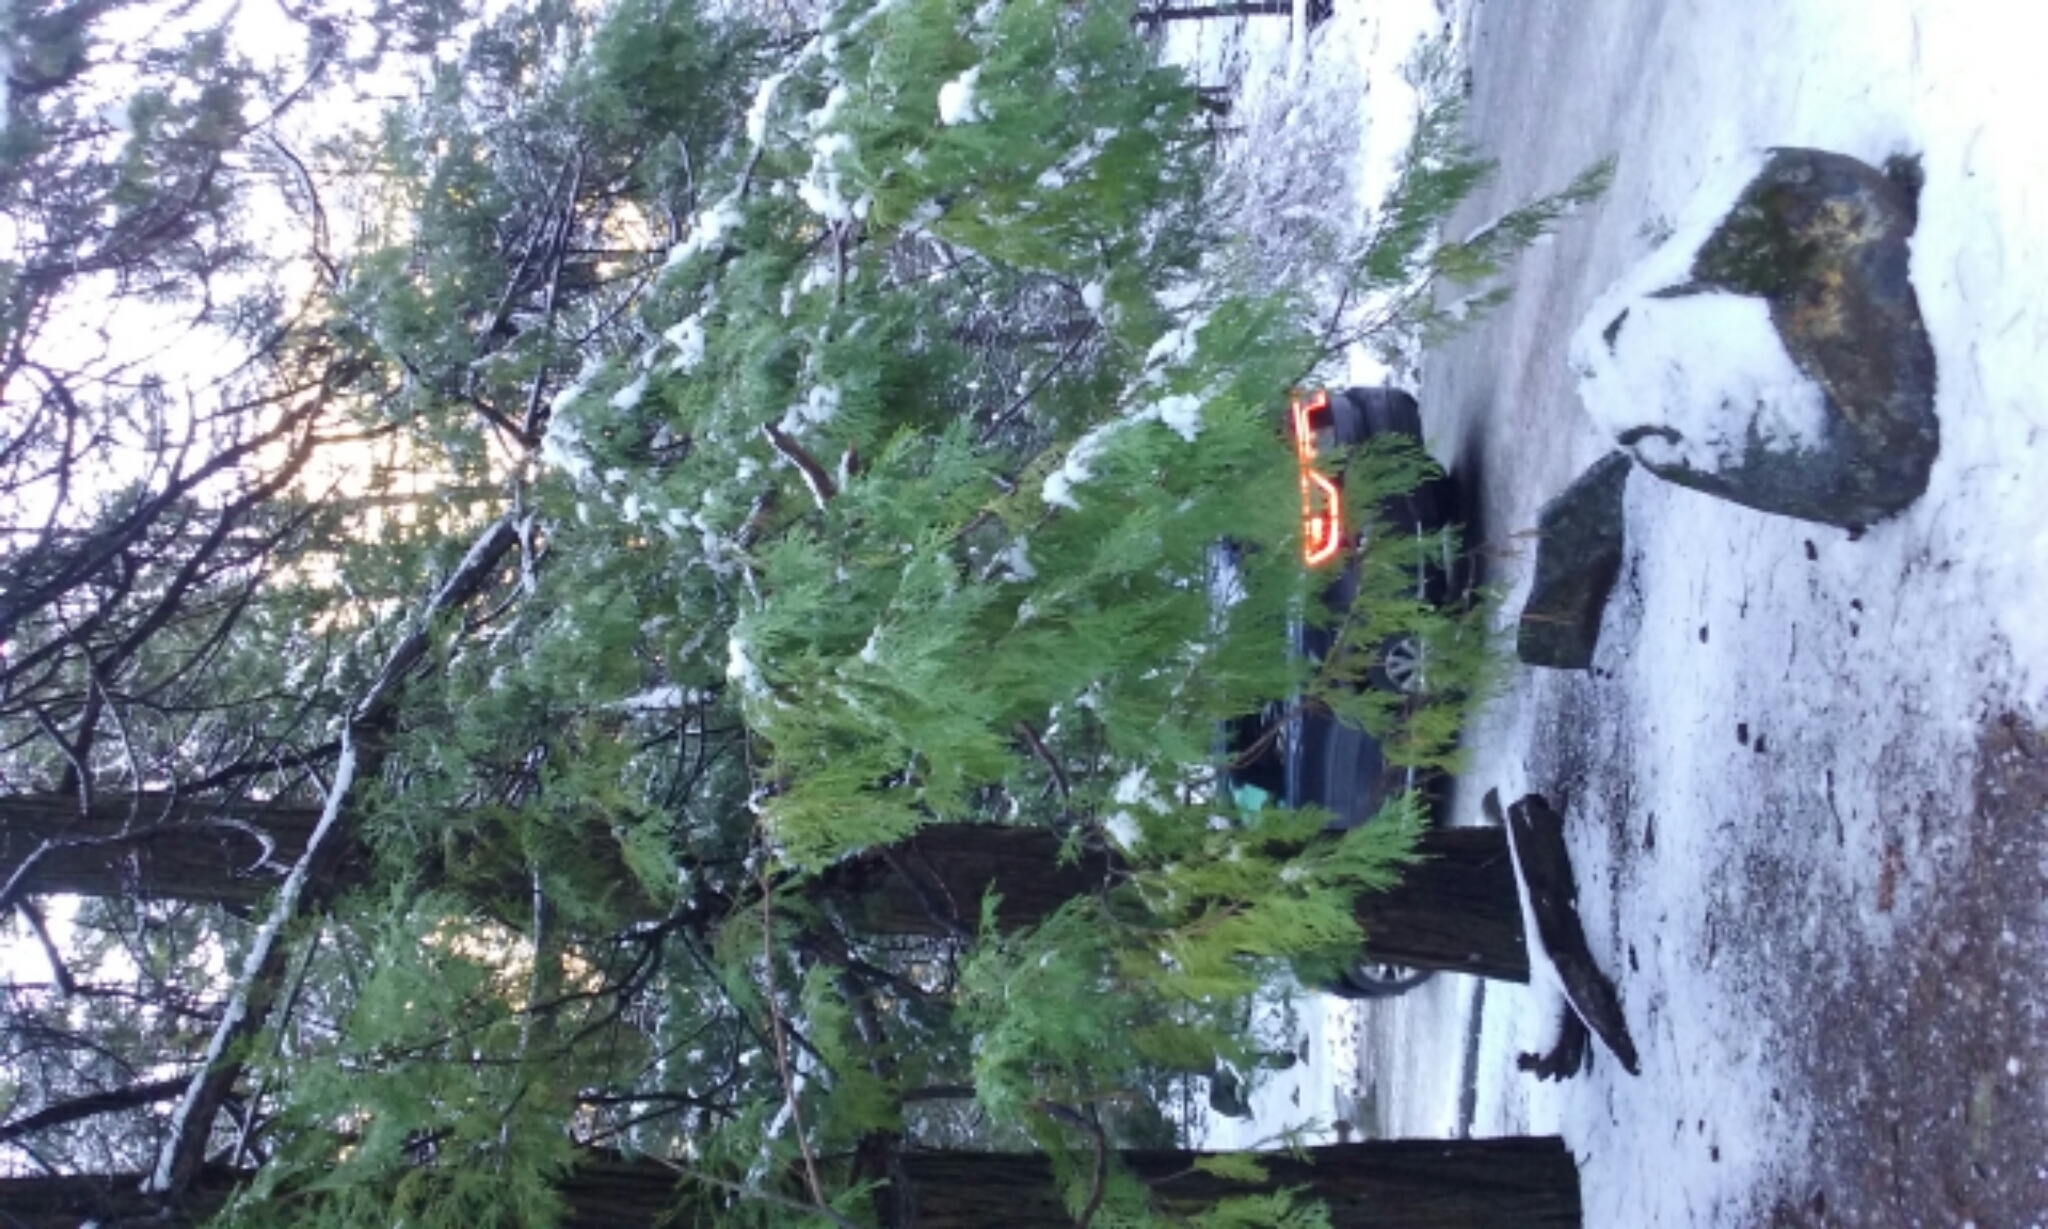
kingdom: Plantae
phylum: Tracheophyta
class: Pinopsida
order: Pinales
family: Cupressaceae
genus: Calocedrus
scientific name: Calocedrus decurrens
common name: Californian incense-cedar
